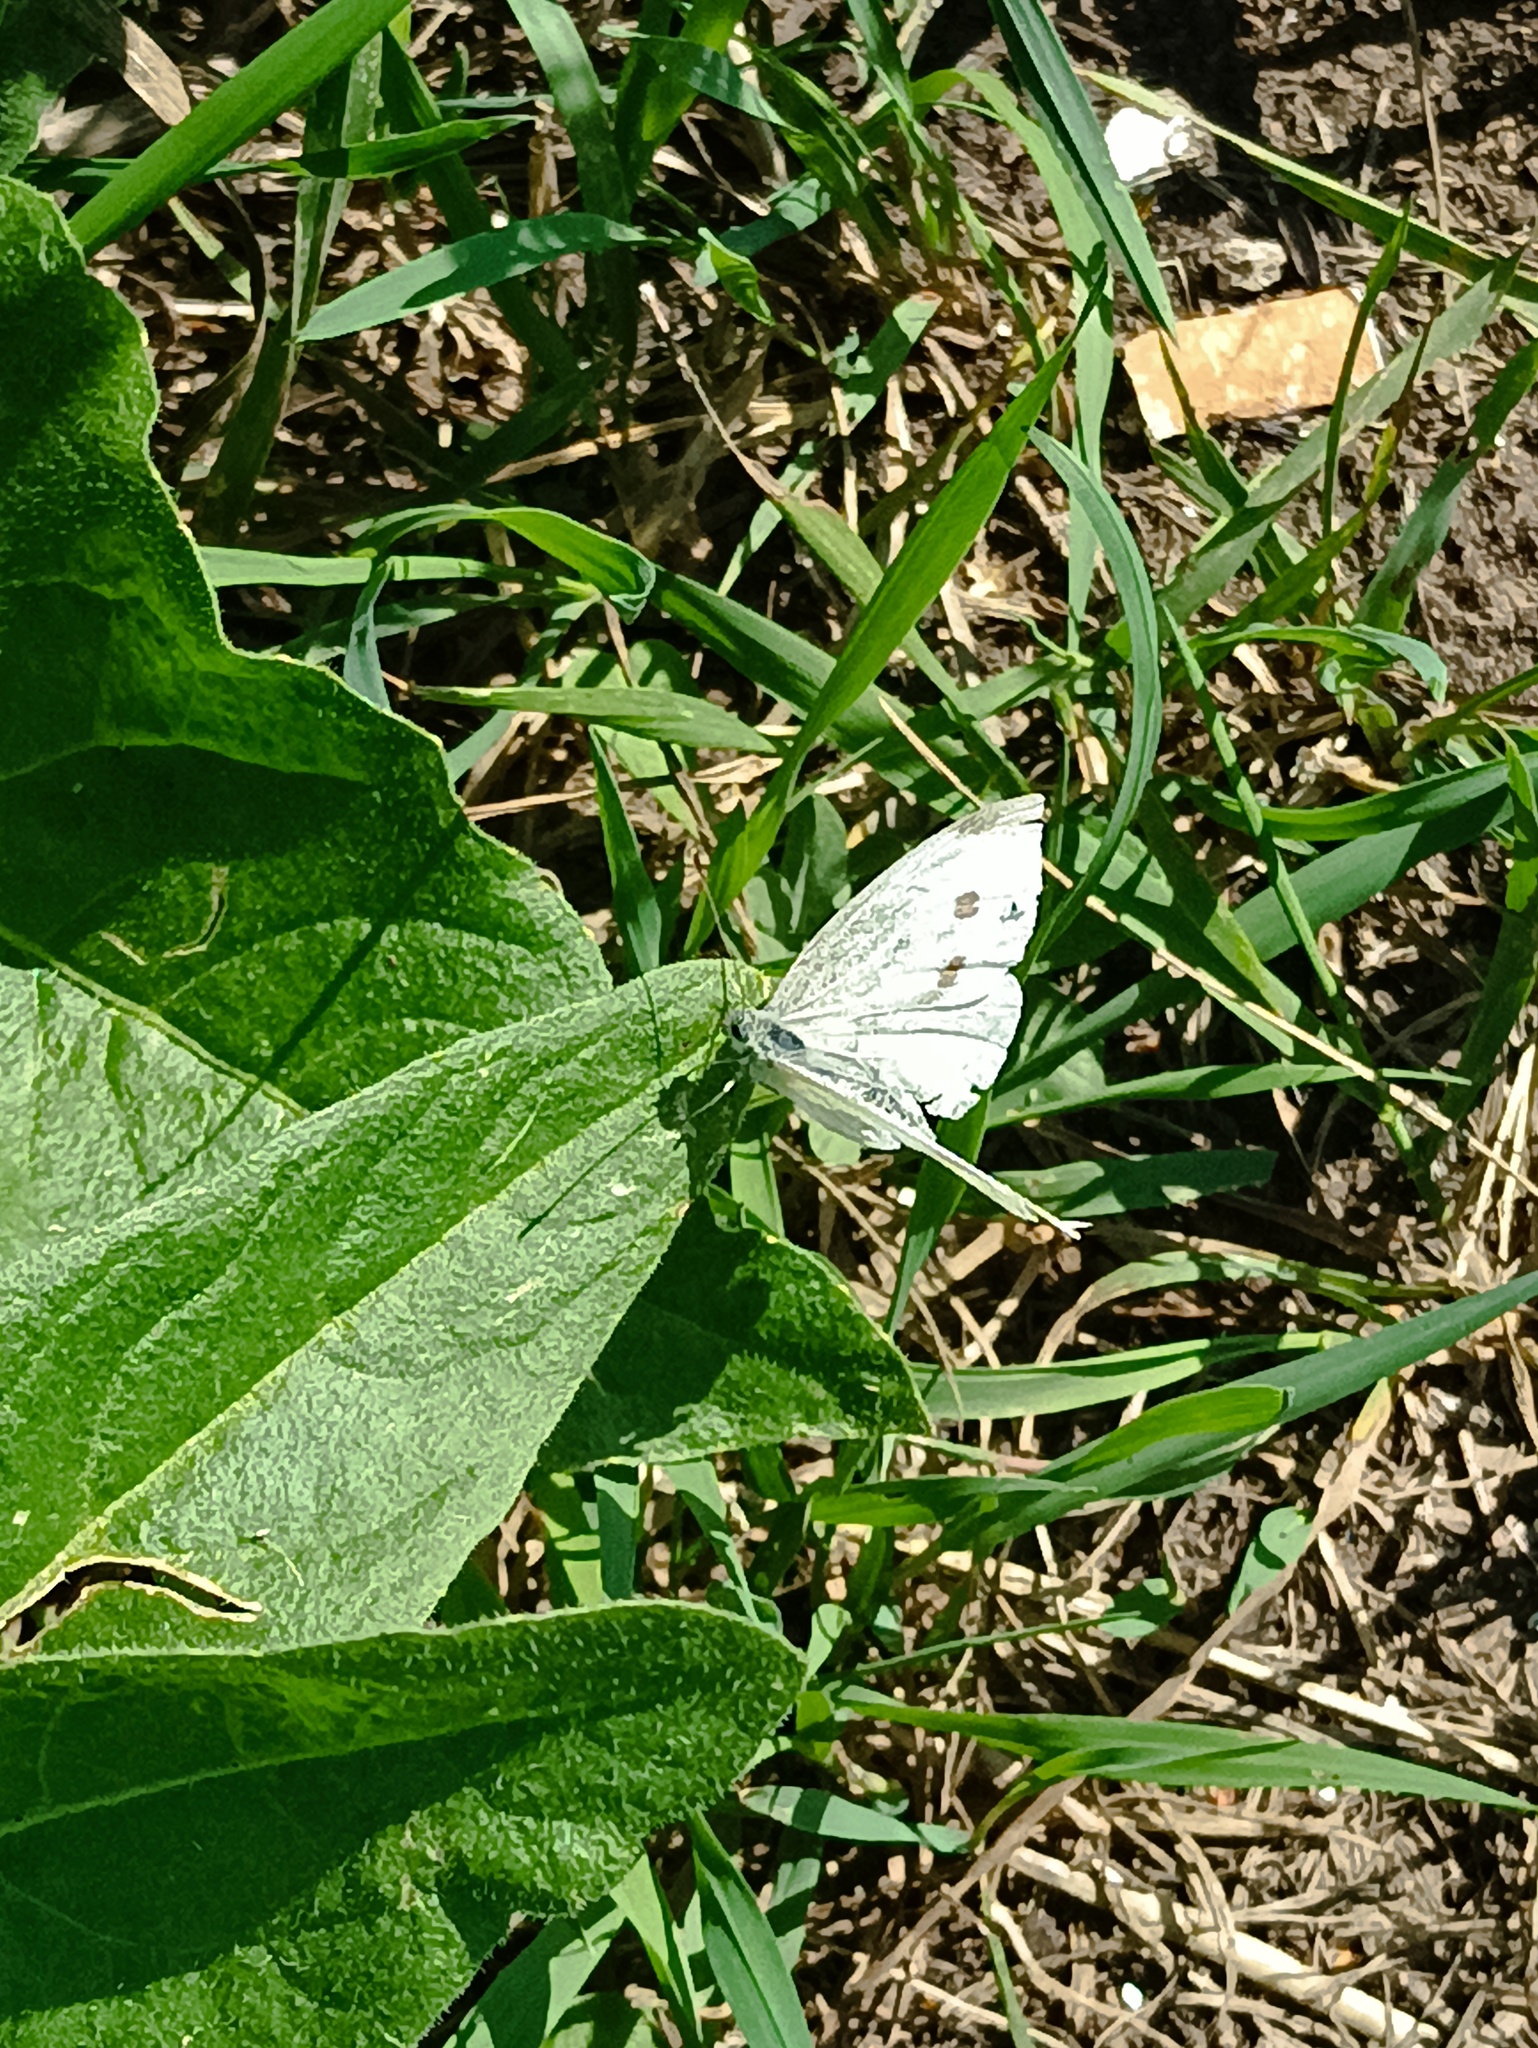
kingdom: Animalia
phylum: Arthropoda
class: Insecta
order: Lepidoptera
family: Pieridae
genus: Pieris
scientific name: Pieris napi
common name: Green-veined white
